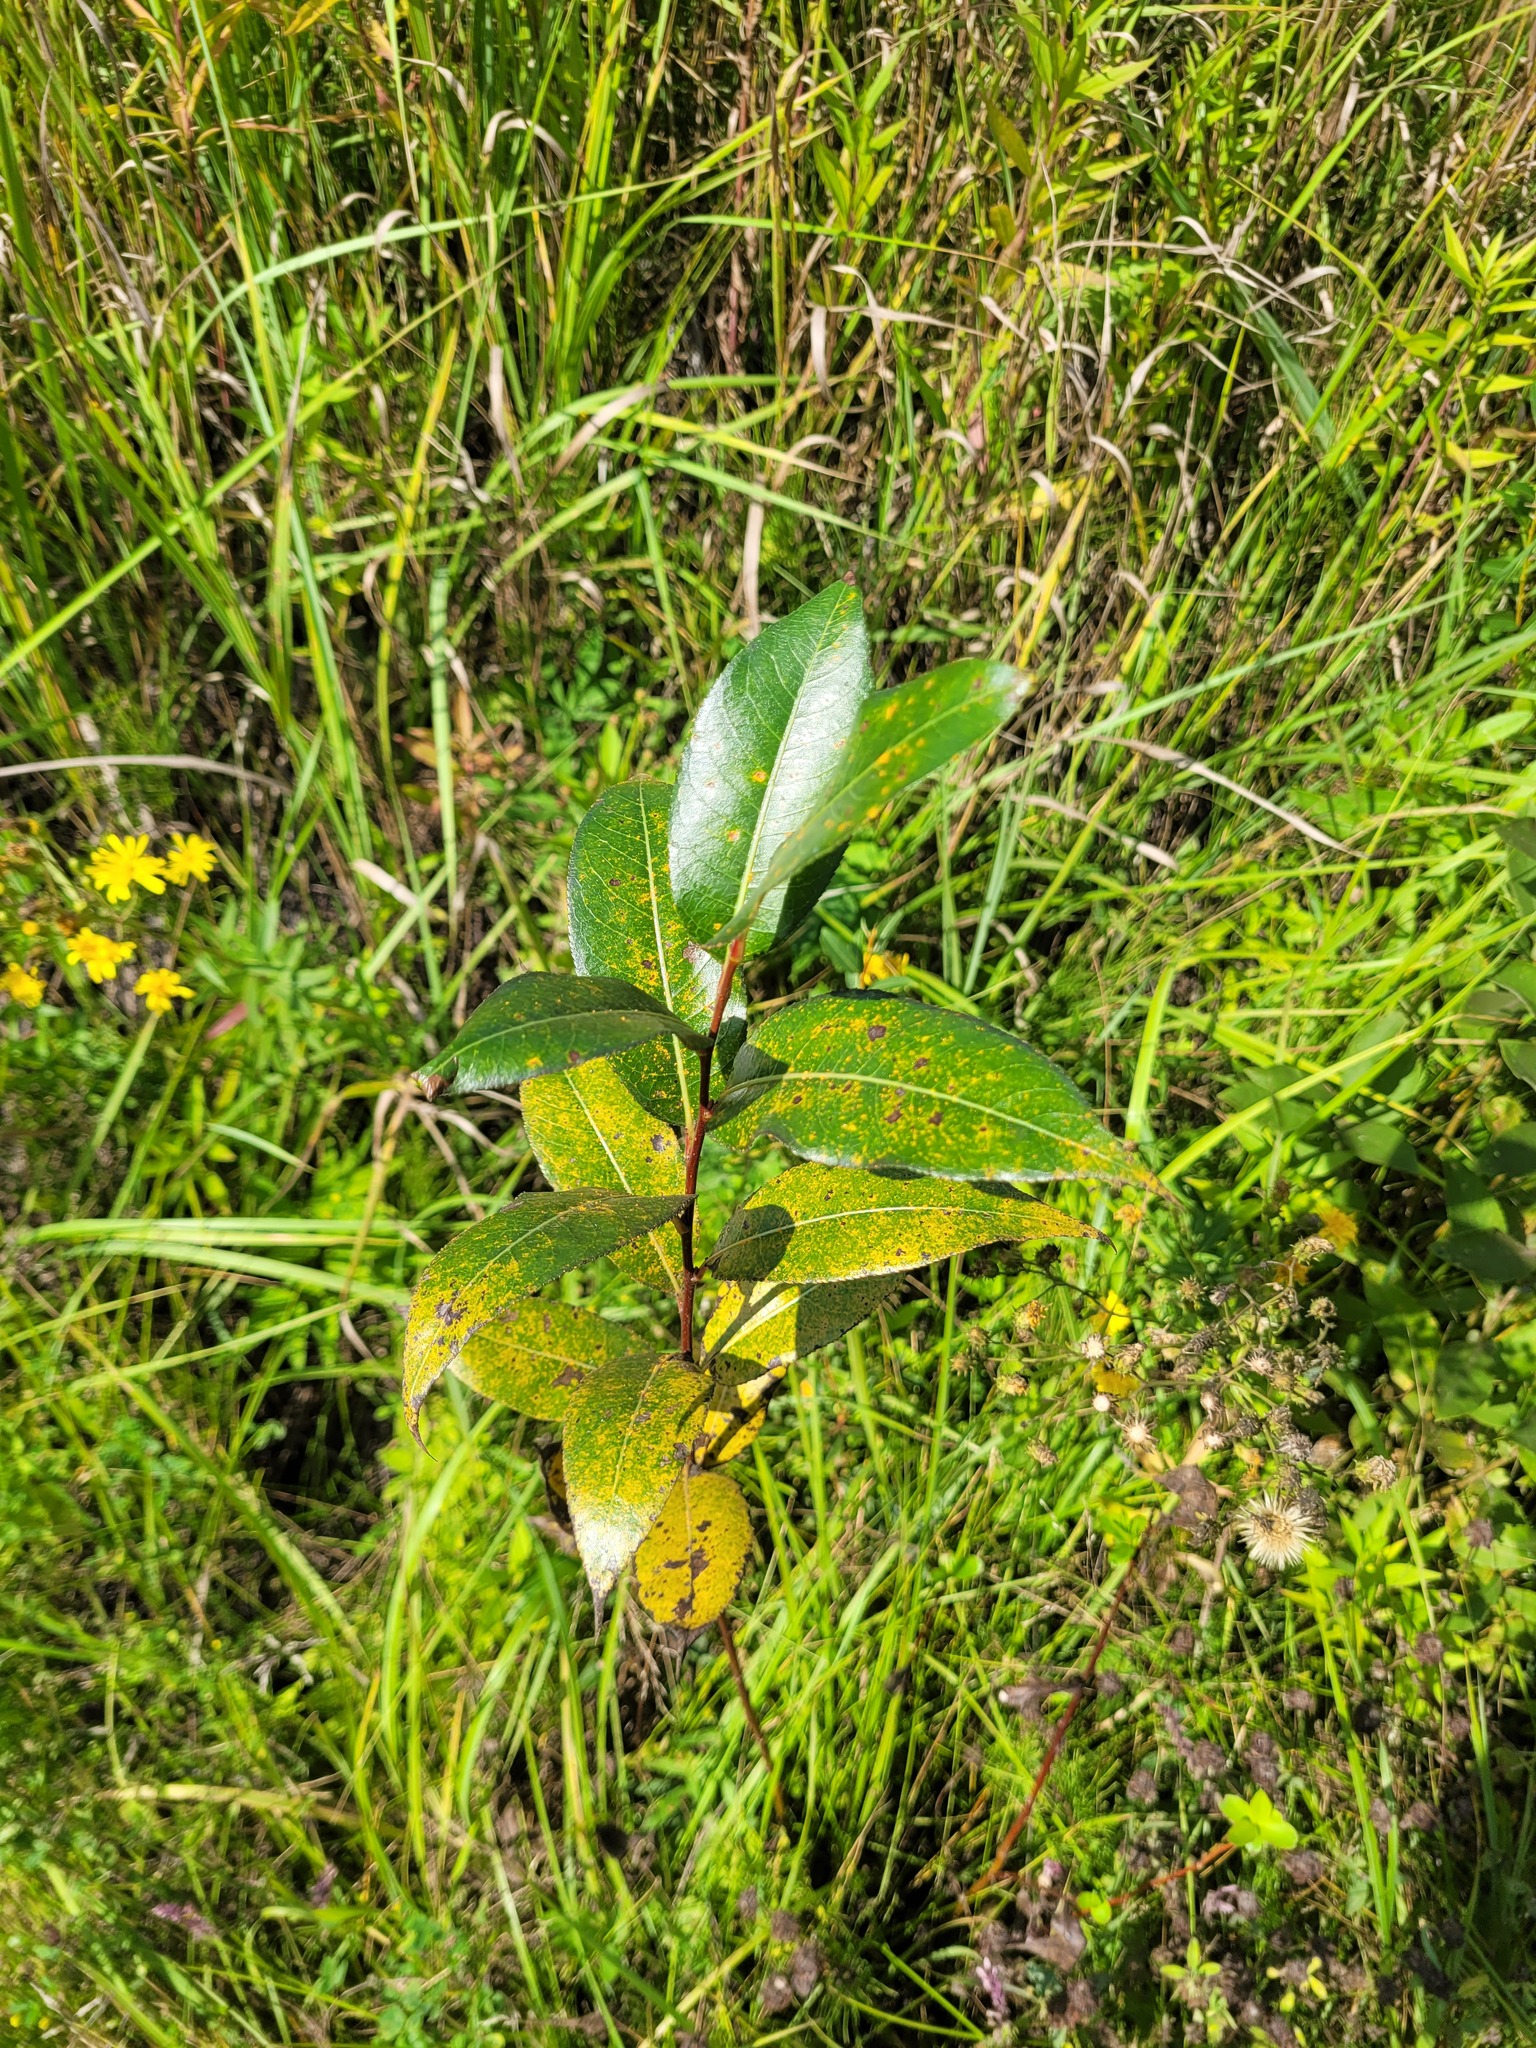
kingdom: Plantae
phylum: Tracheophyta
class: Magnoliopsida
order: Malpighiales
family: Salicaceae
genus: Salix
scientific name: Salix pentandra
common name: Bay willow
